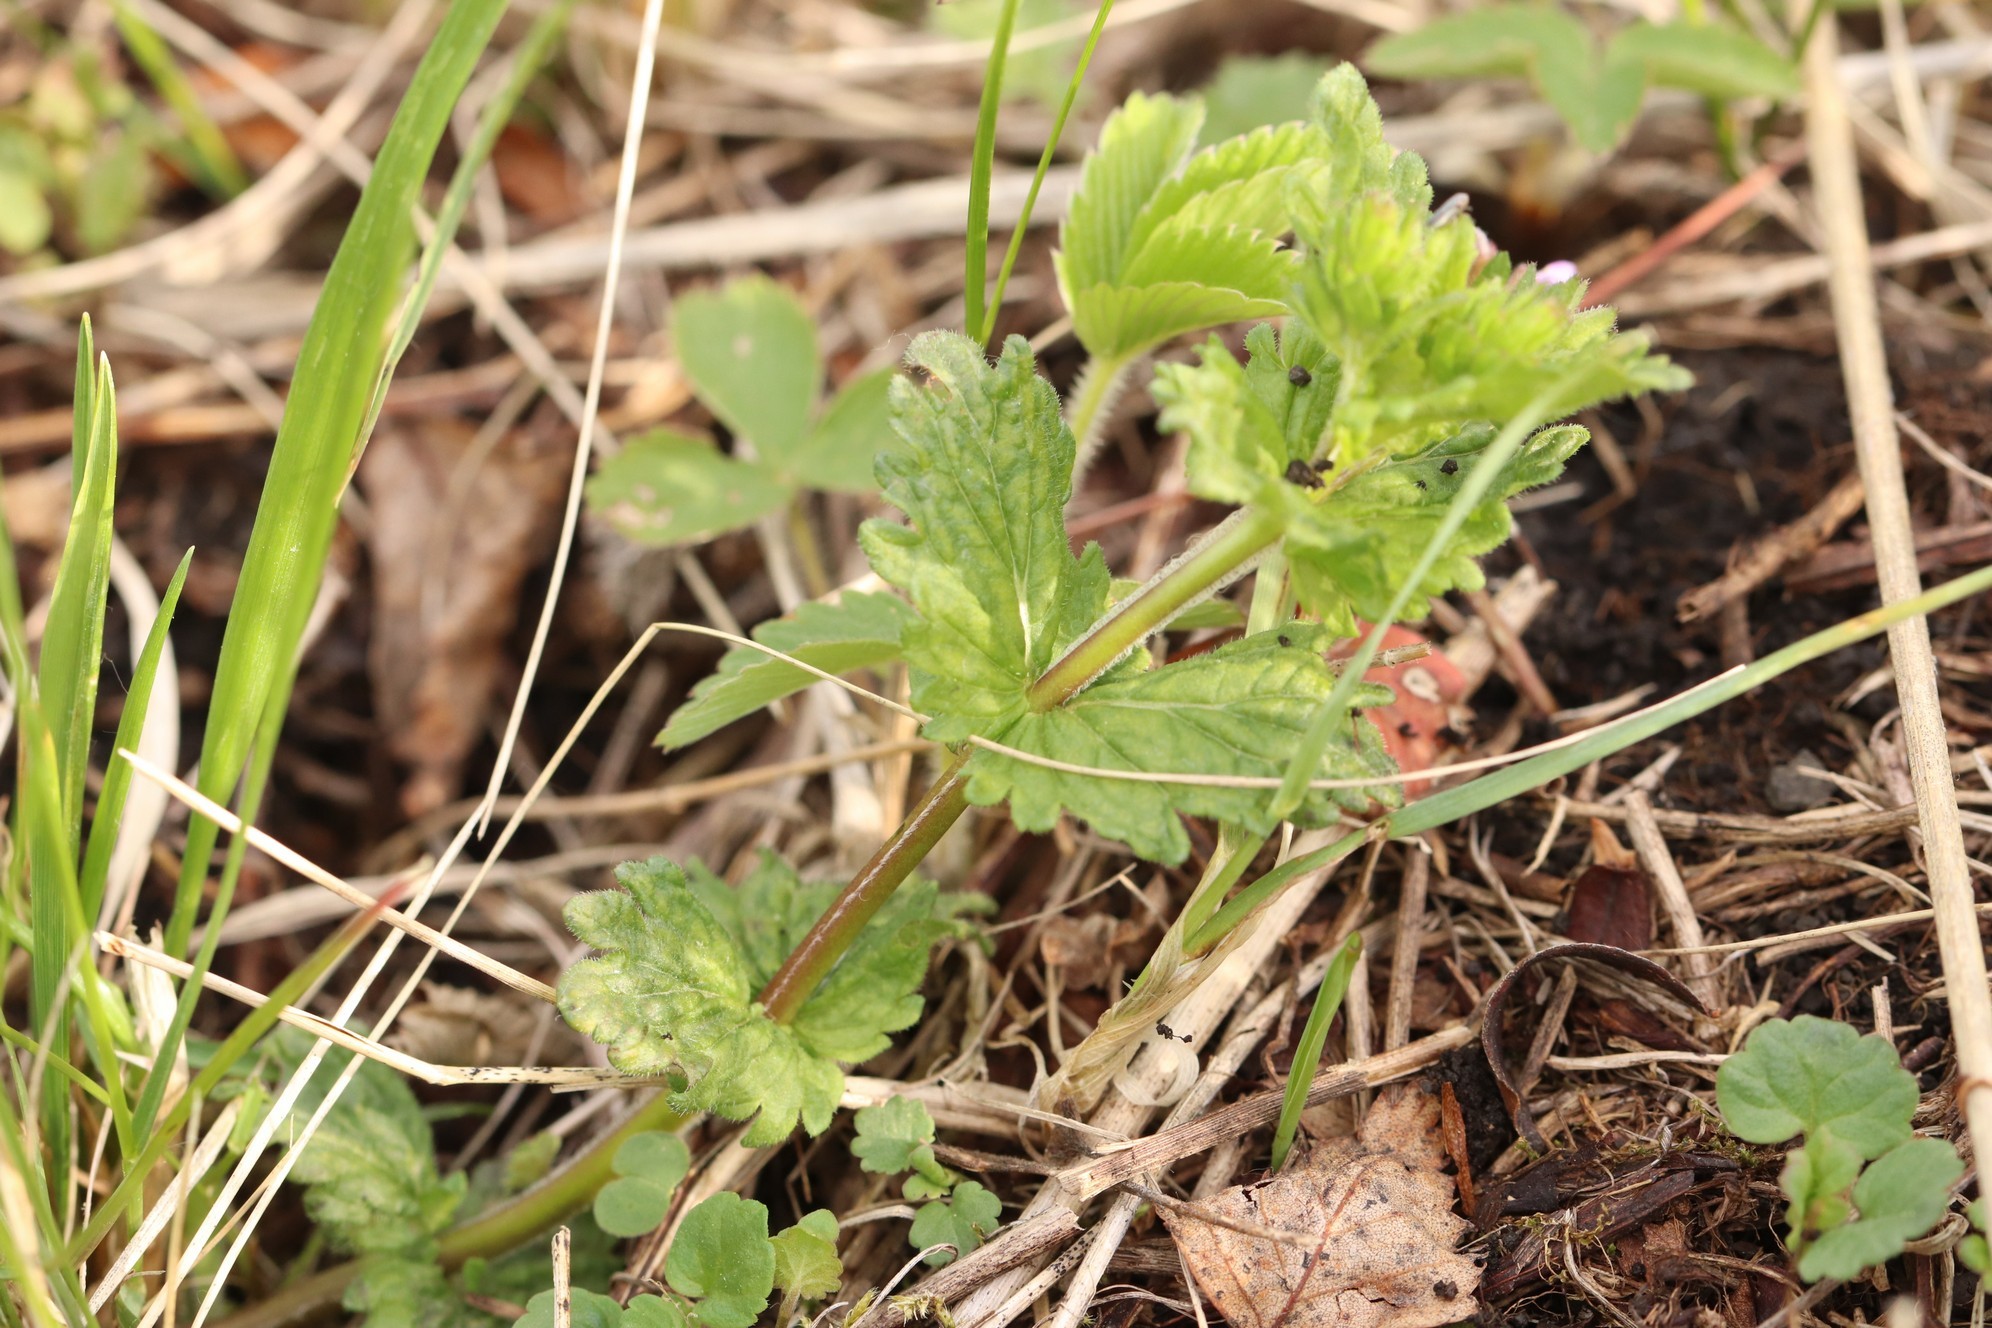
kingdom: Plantae
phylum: Tracheophyta
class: Magnoliopsida
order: Lamiales
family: Plantaginaceae
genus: Veronica
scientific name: Veronica chamaedrys
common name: Germander speedwell
